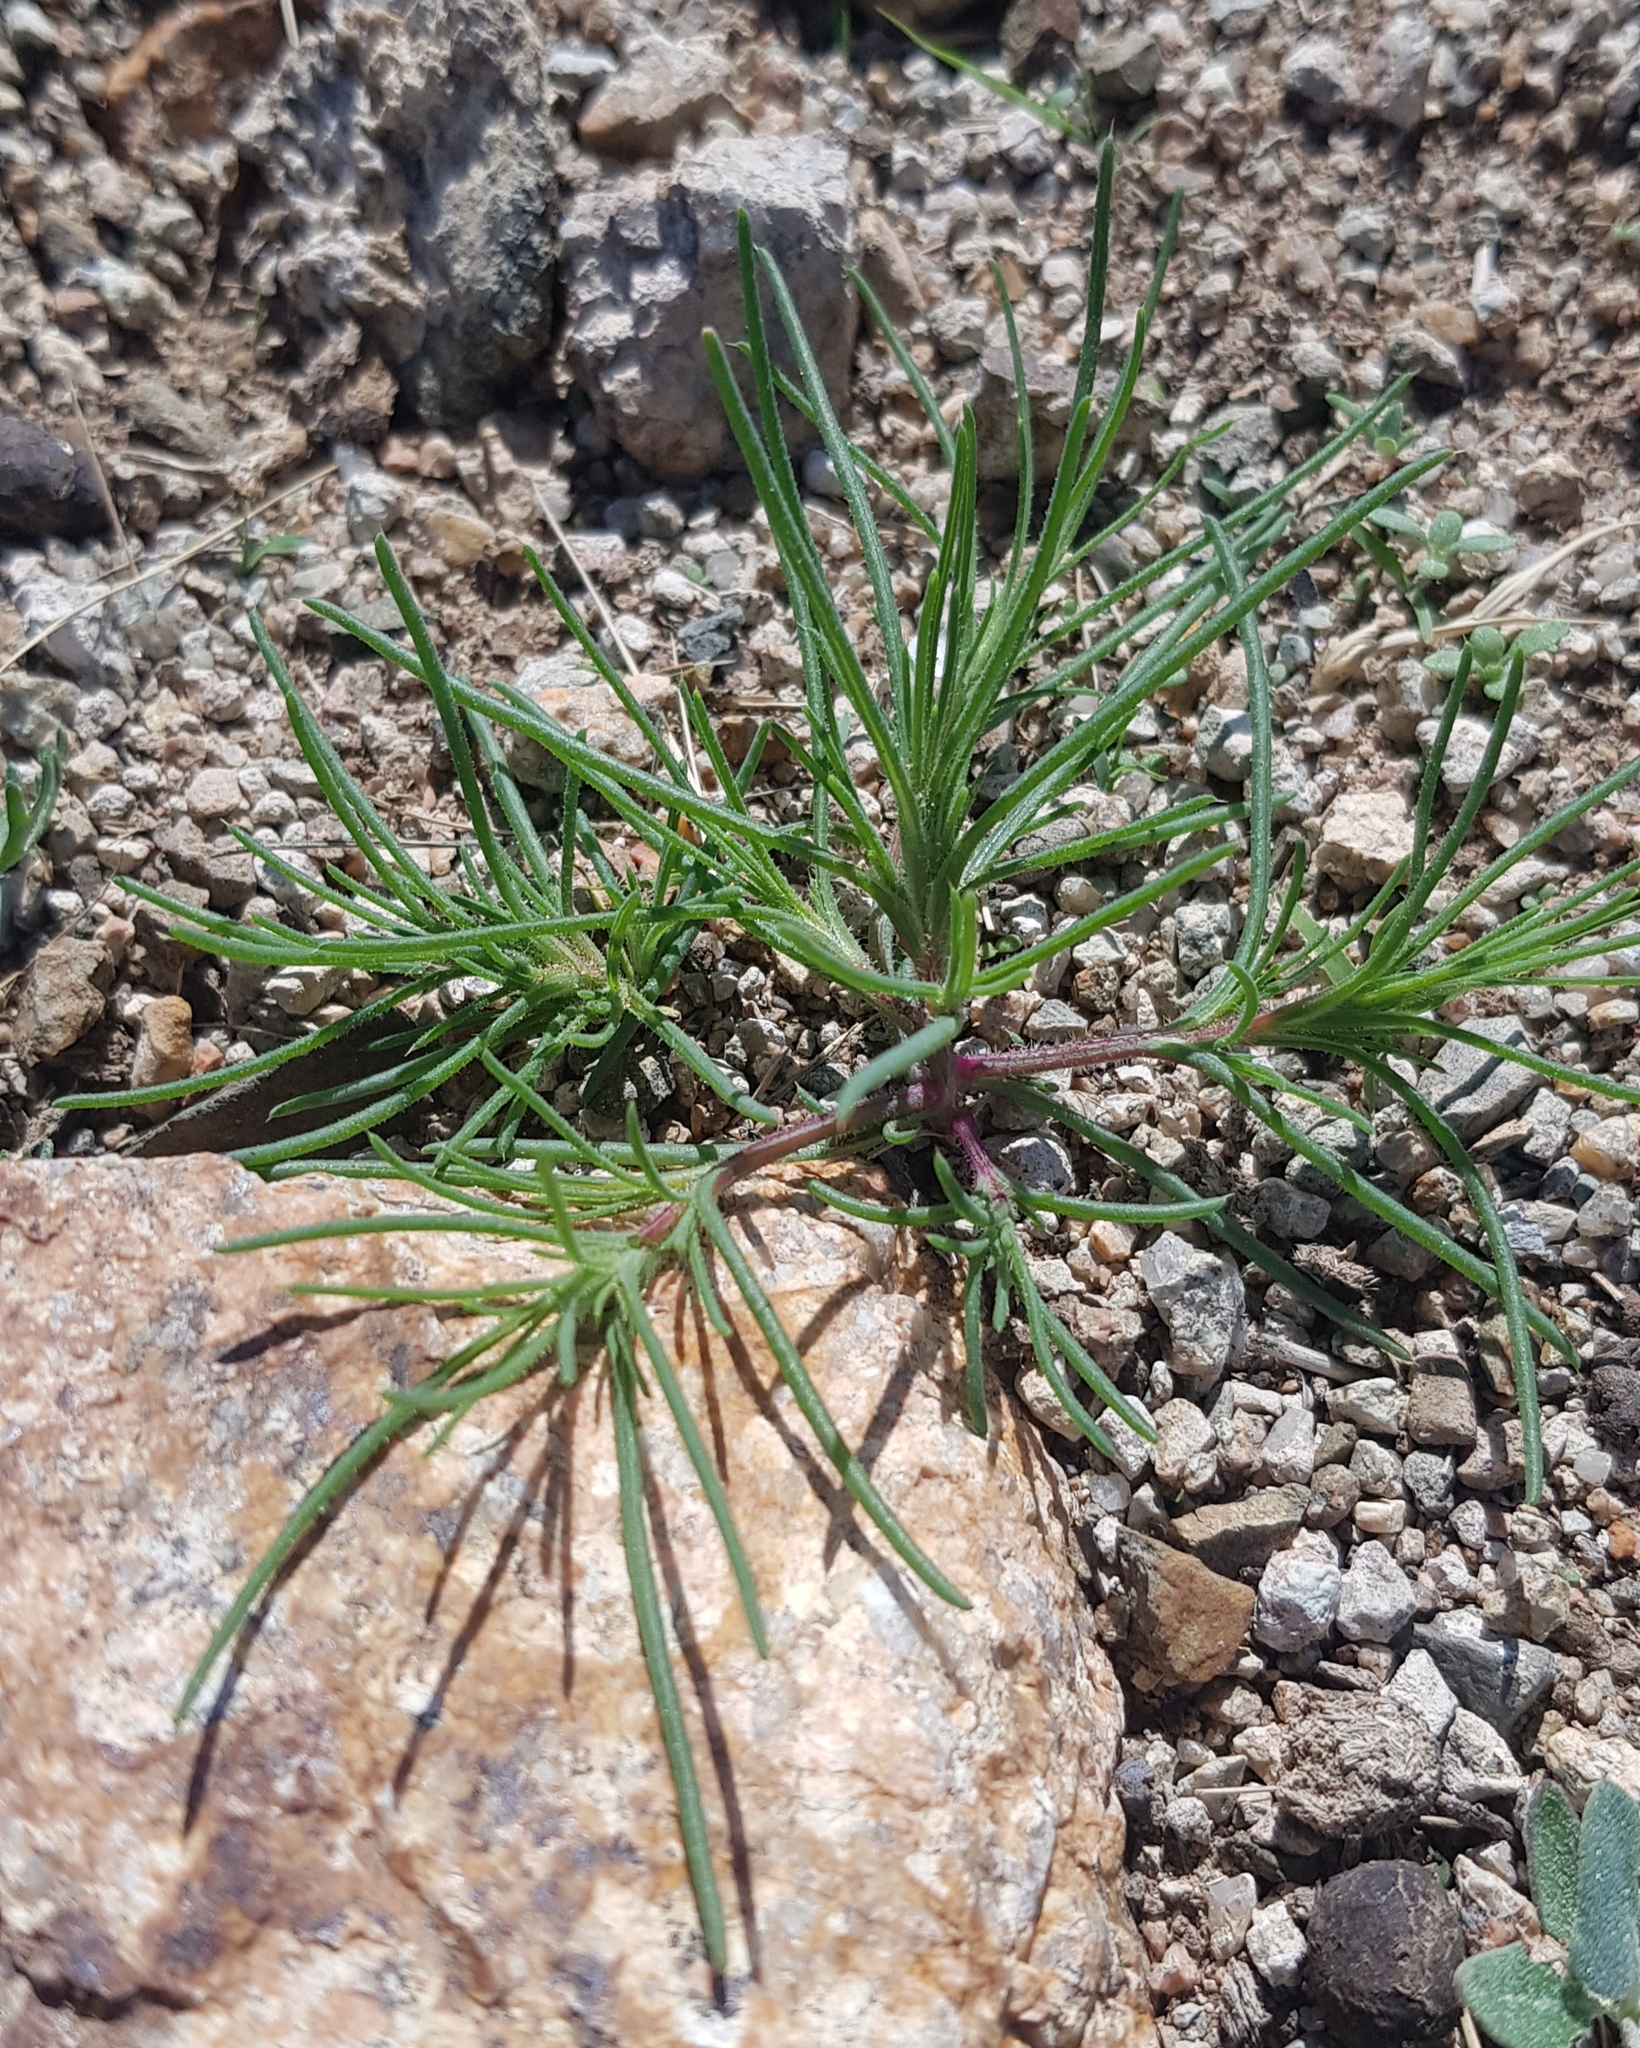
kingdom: Plantae
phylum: Tracheophyta
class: Magnoliopsida
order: Caryophyllales
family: Amaranthaceae
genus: Salsola
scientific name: Salsola collina
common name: Tumbleweed
